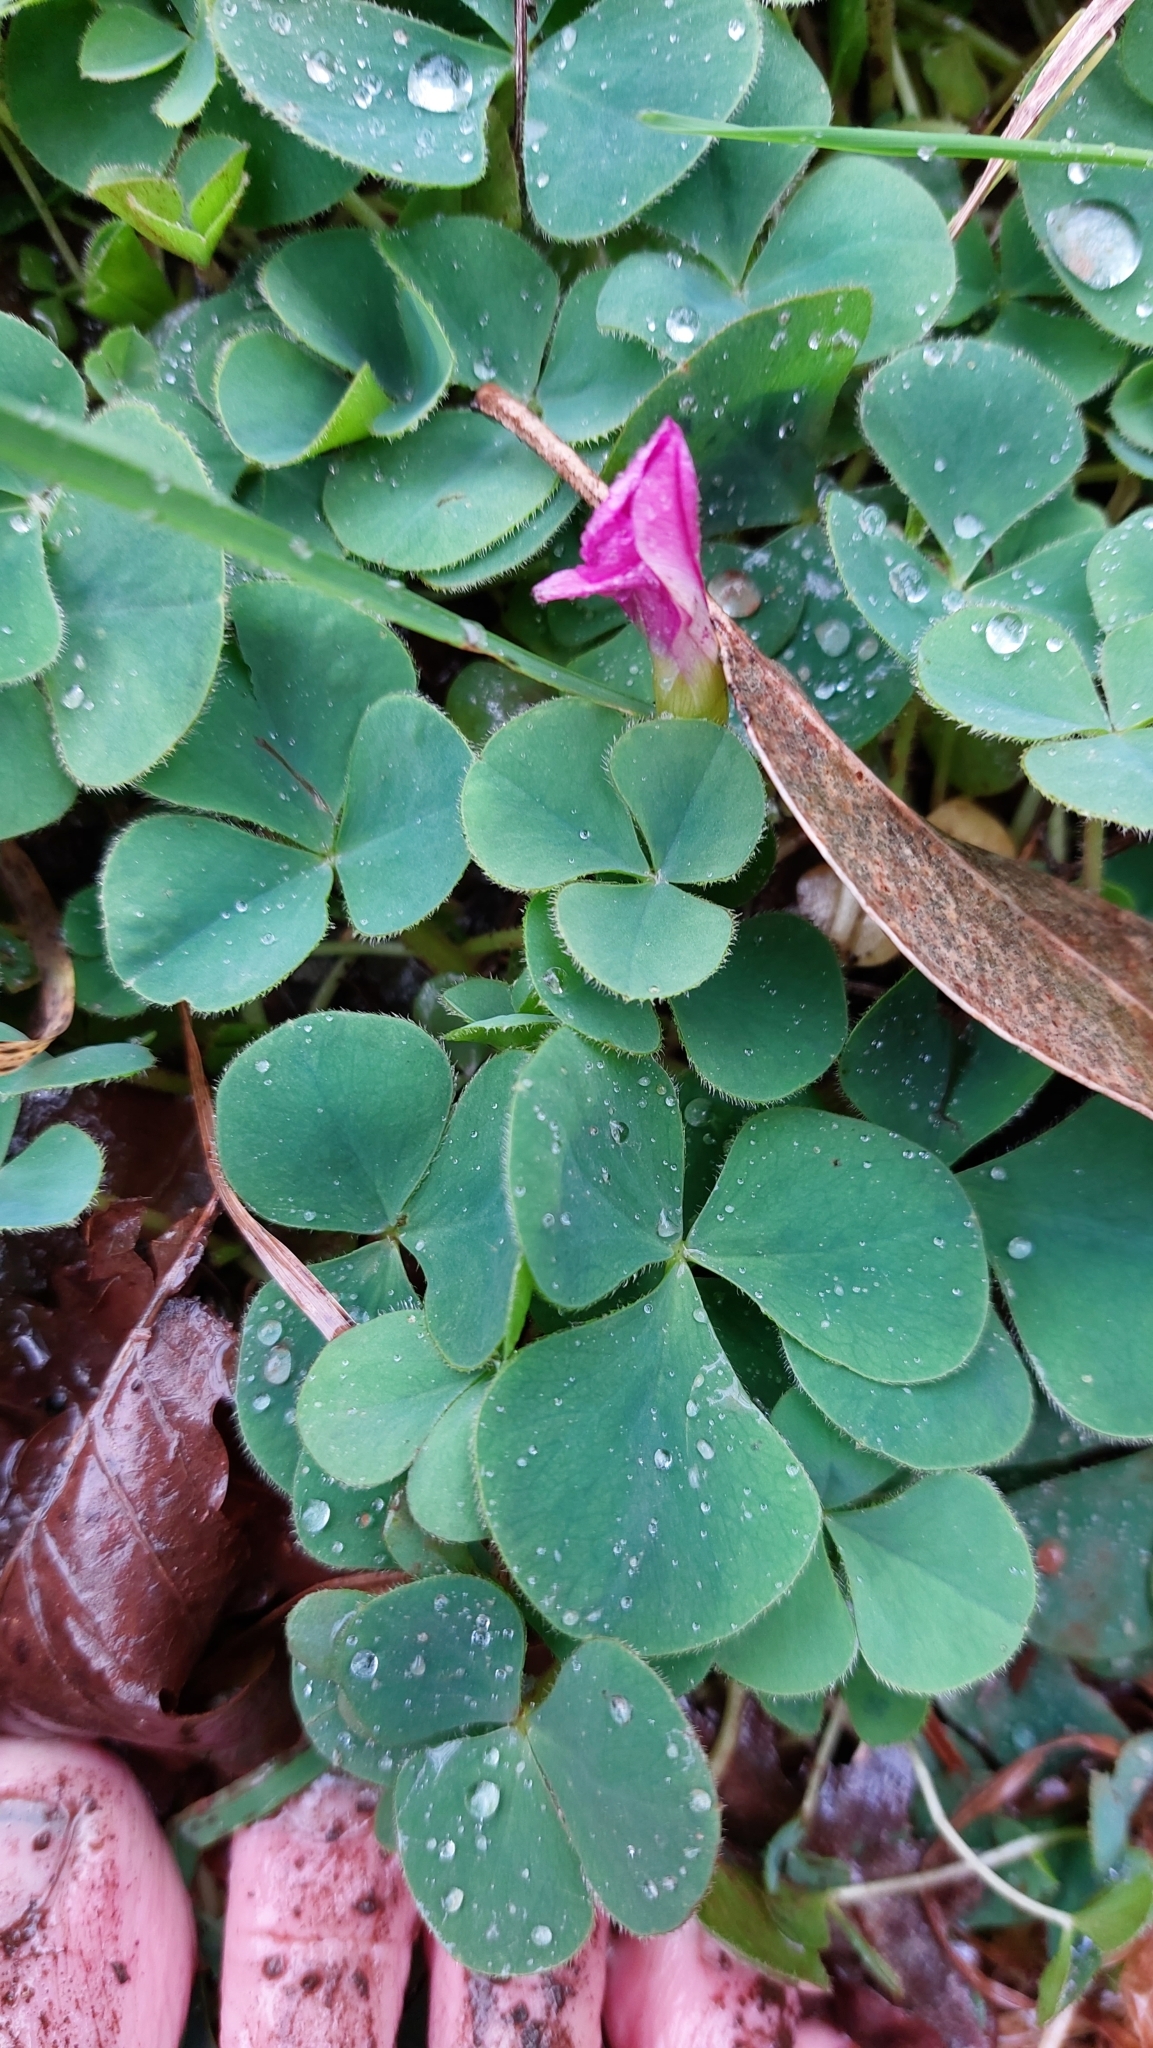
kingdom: Plantae
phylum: Tracheophyta
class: Magnoliopsida
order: Oxalidales
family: Oxalidaceae
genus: Oxalis
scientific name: Oxalis purpurea
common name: Purple woodsorrel
